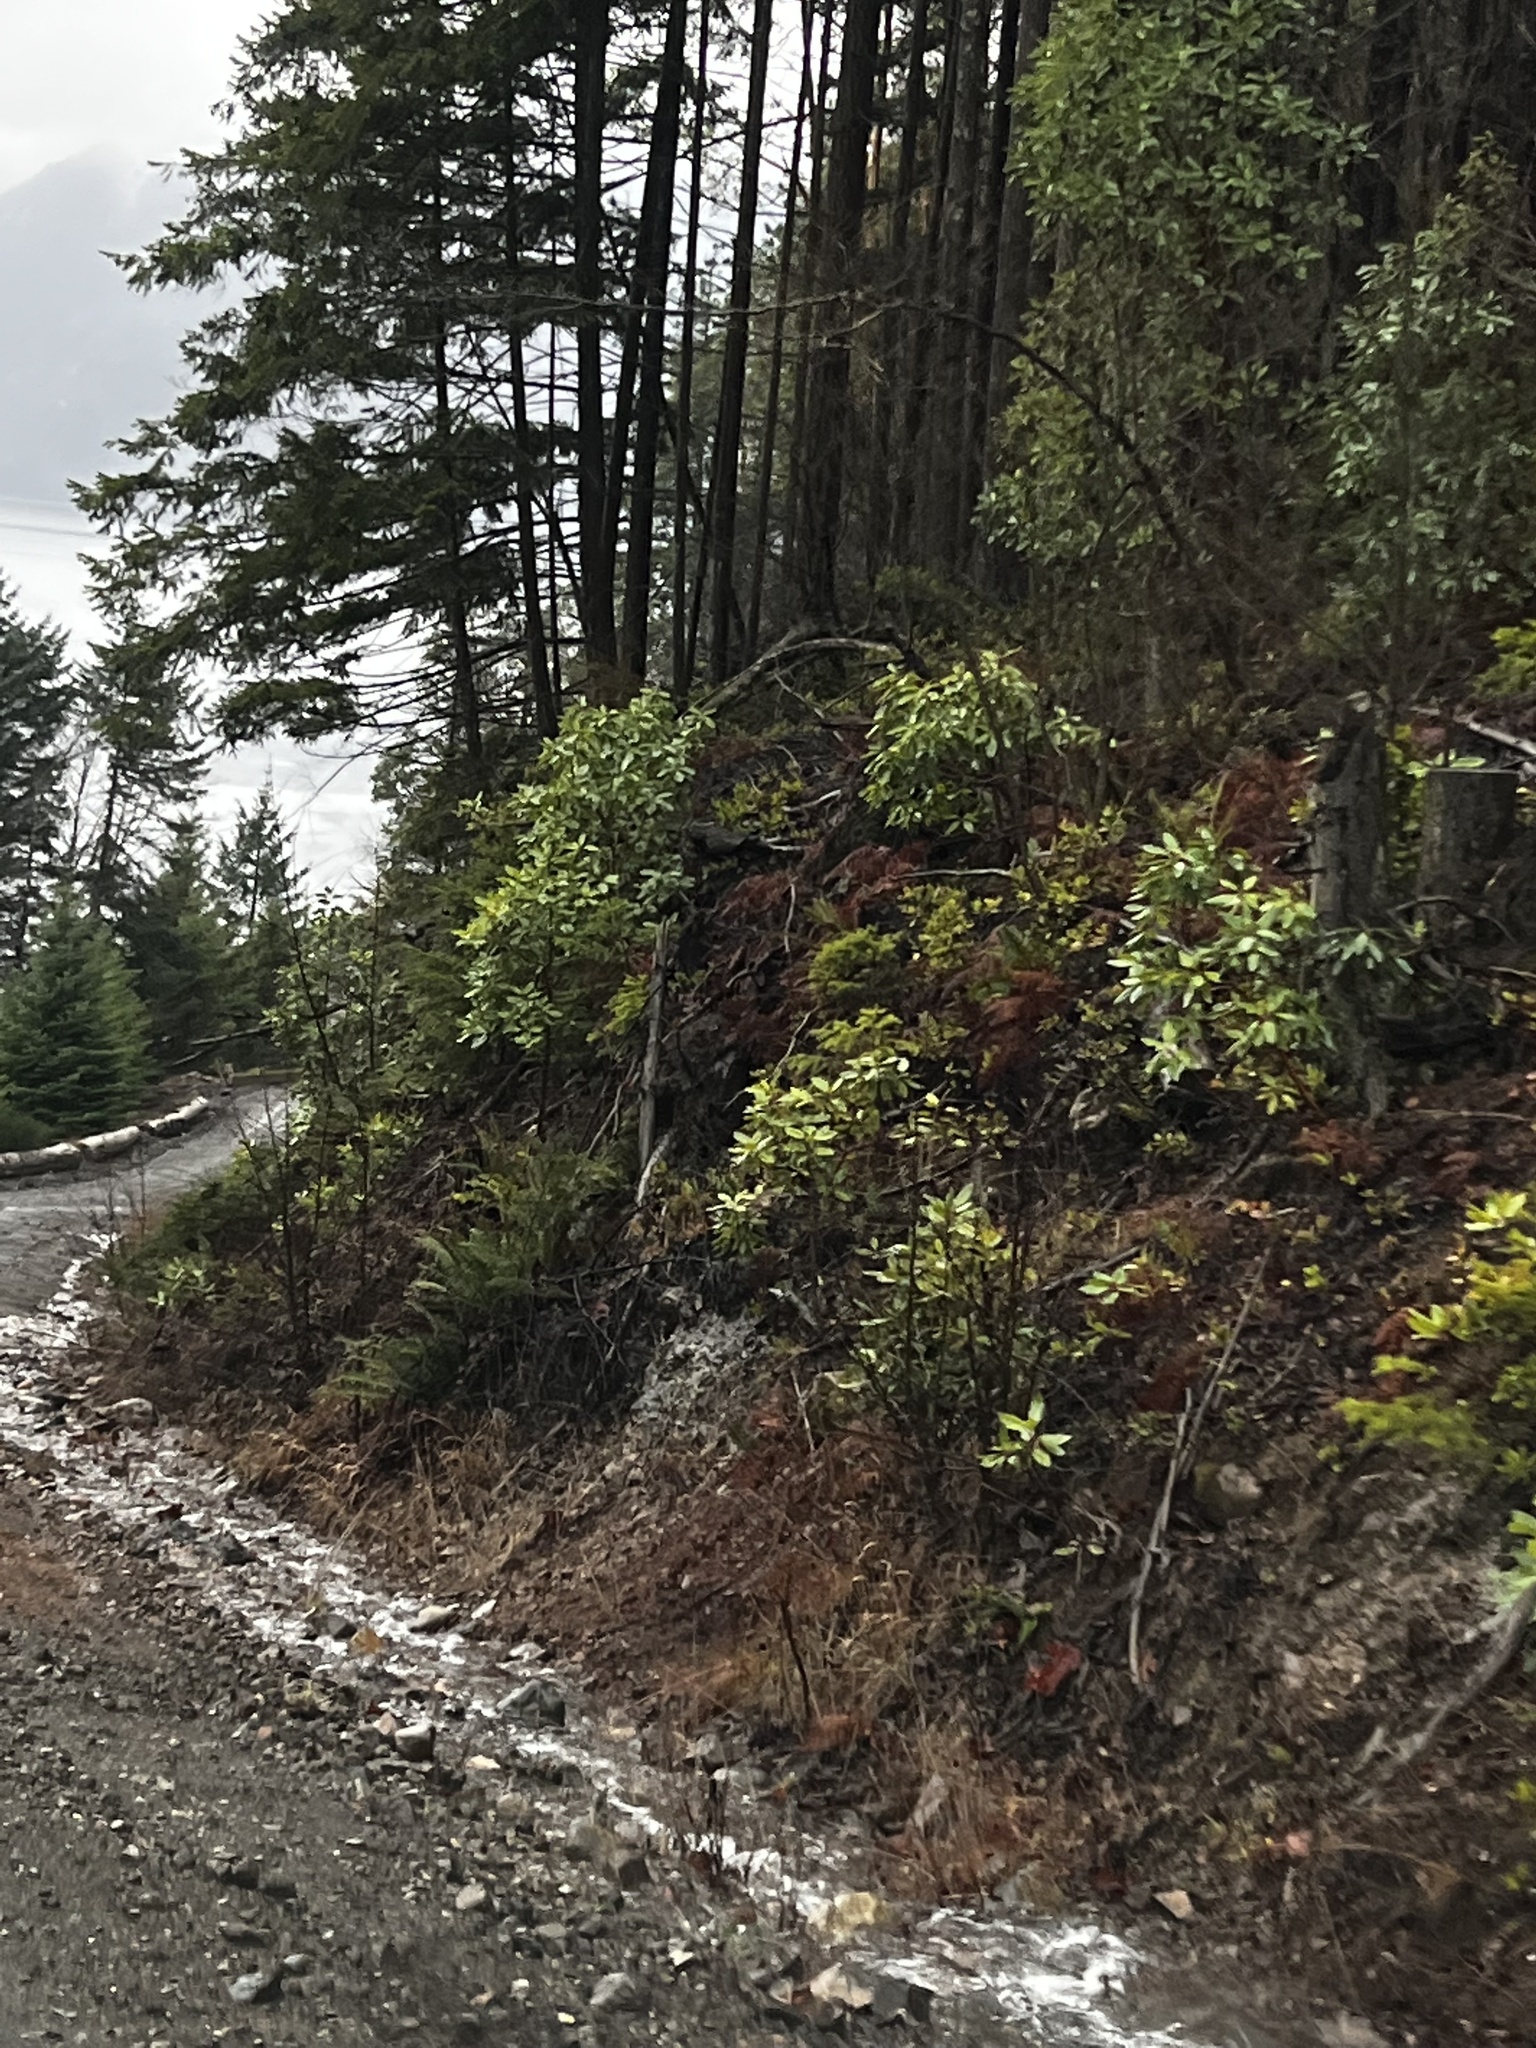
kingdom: Plantae
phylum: Tracheophyta
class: Polypodiopsida
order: Polypodiales
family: Dryopteridaceae
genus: Polystichum
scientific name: Polystichum munitum
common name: Western sword-fern
